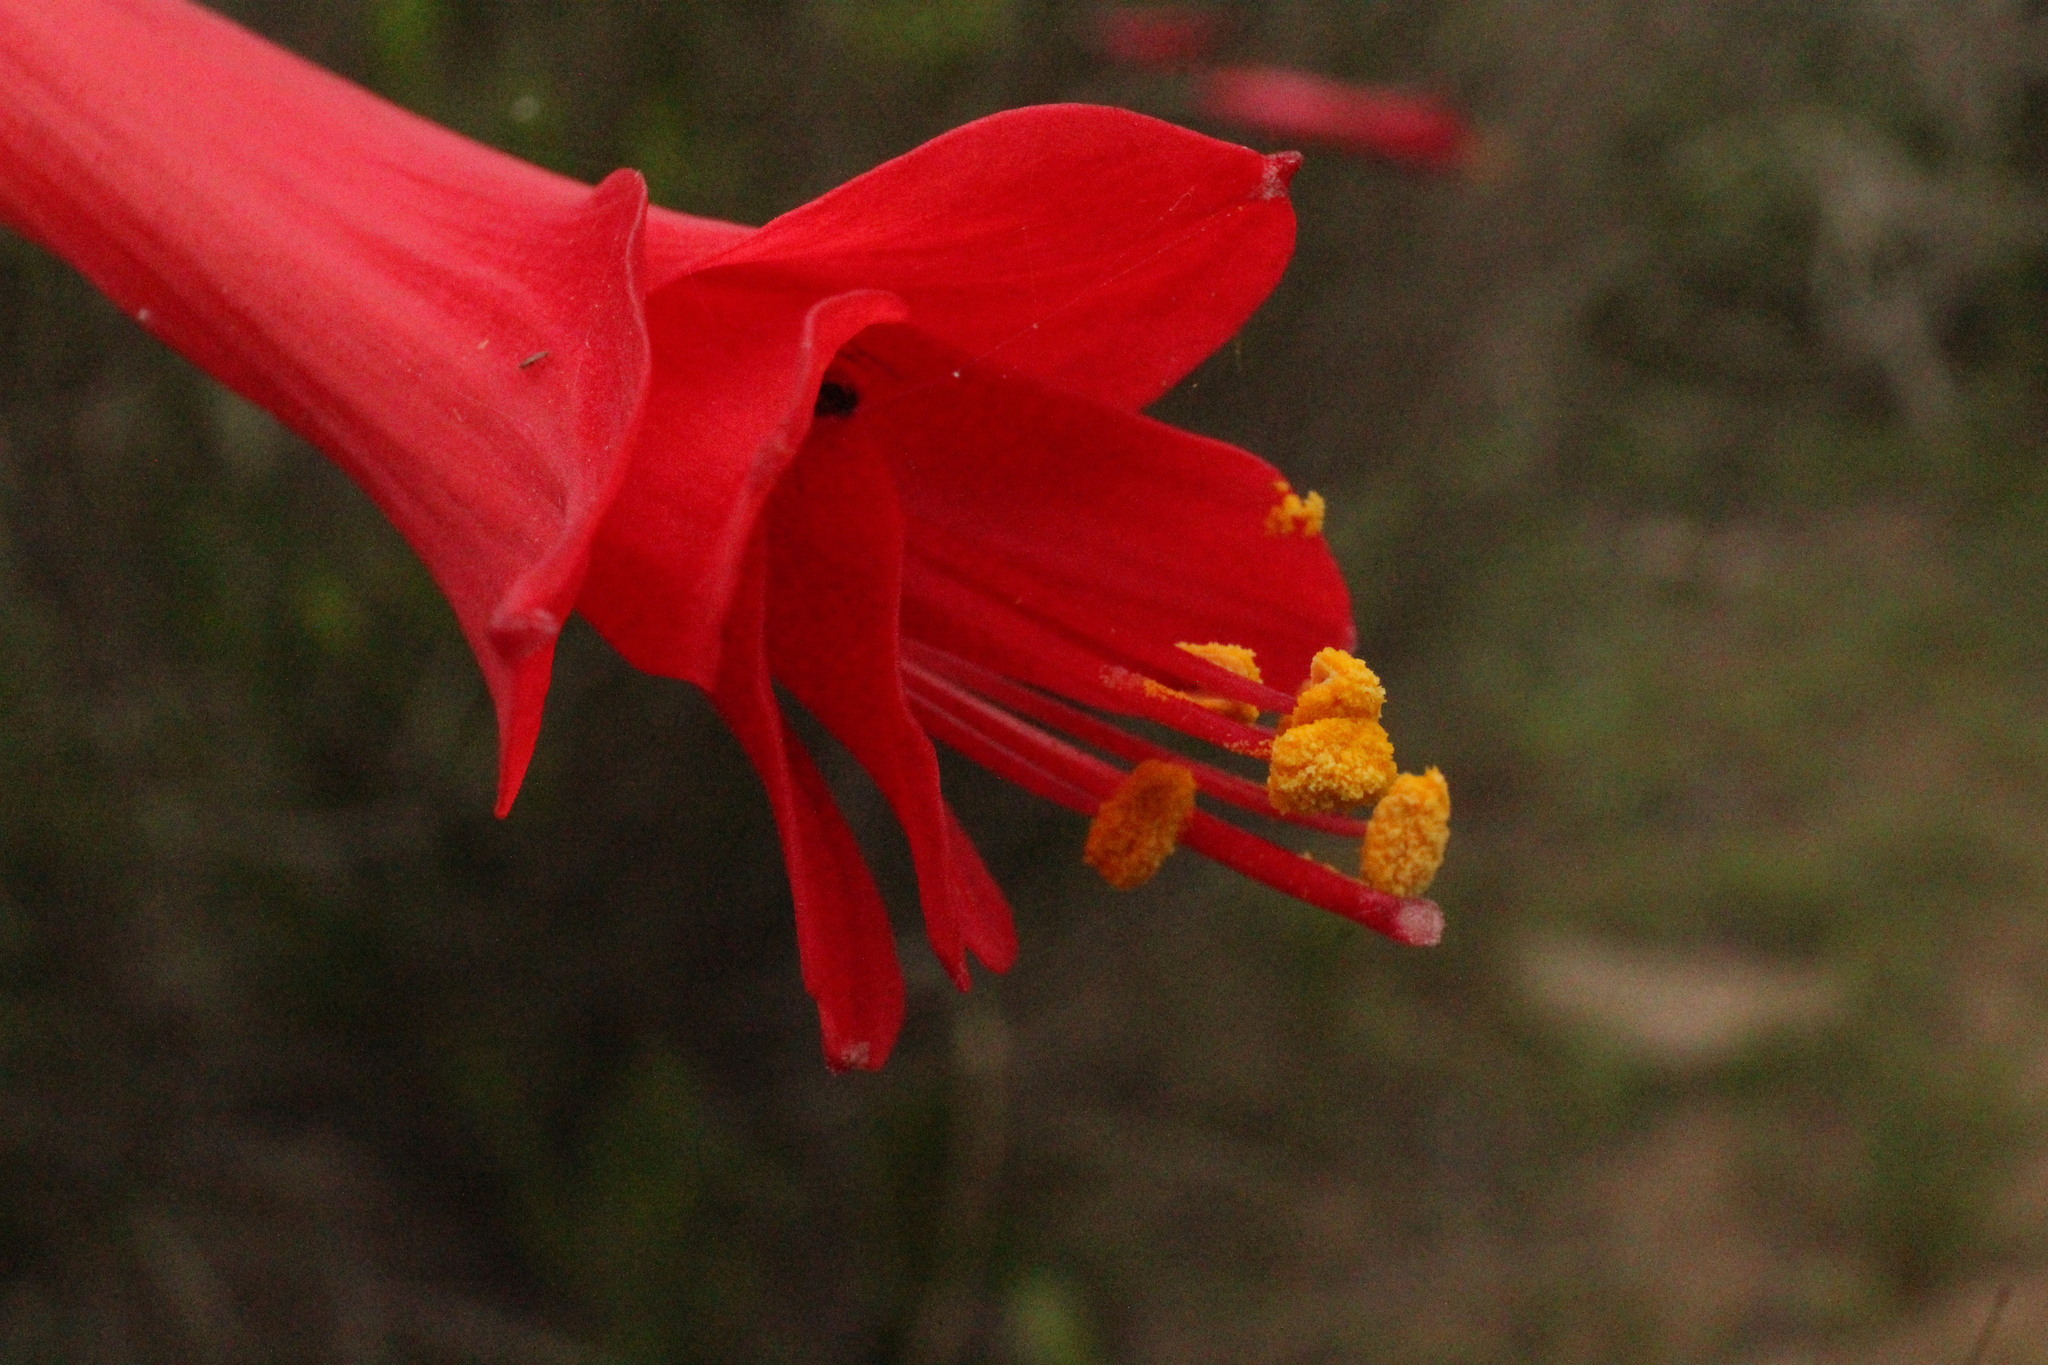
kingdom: Plantae
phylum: Tracheophyta
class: Liliopsida
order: Asparagales
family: Amaryllidaceae
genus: Phycella
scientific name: Phycella cyrtanthoides
